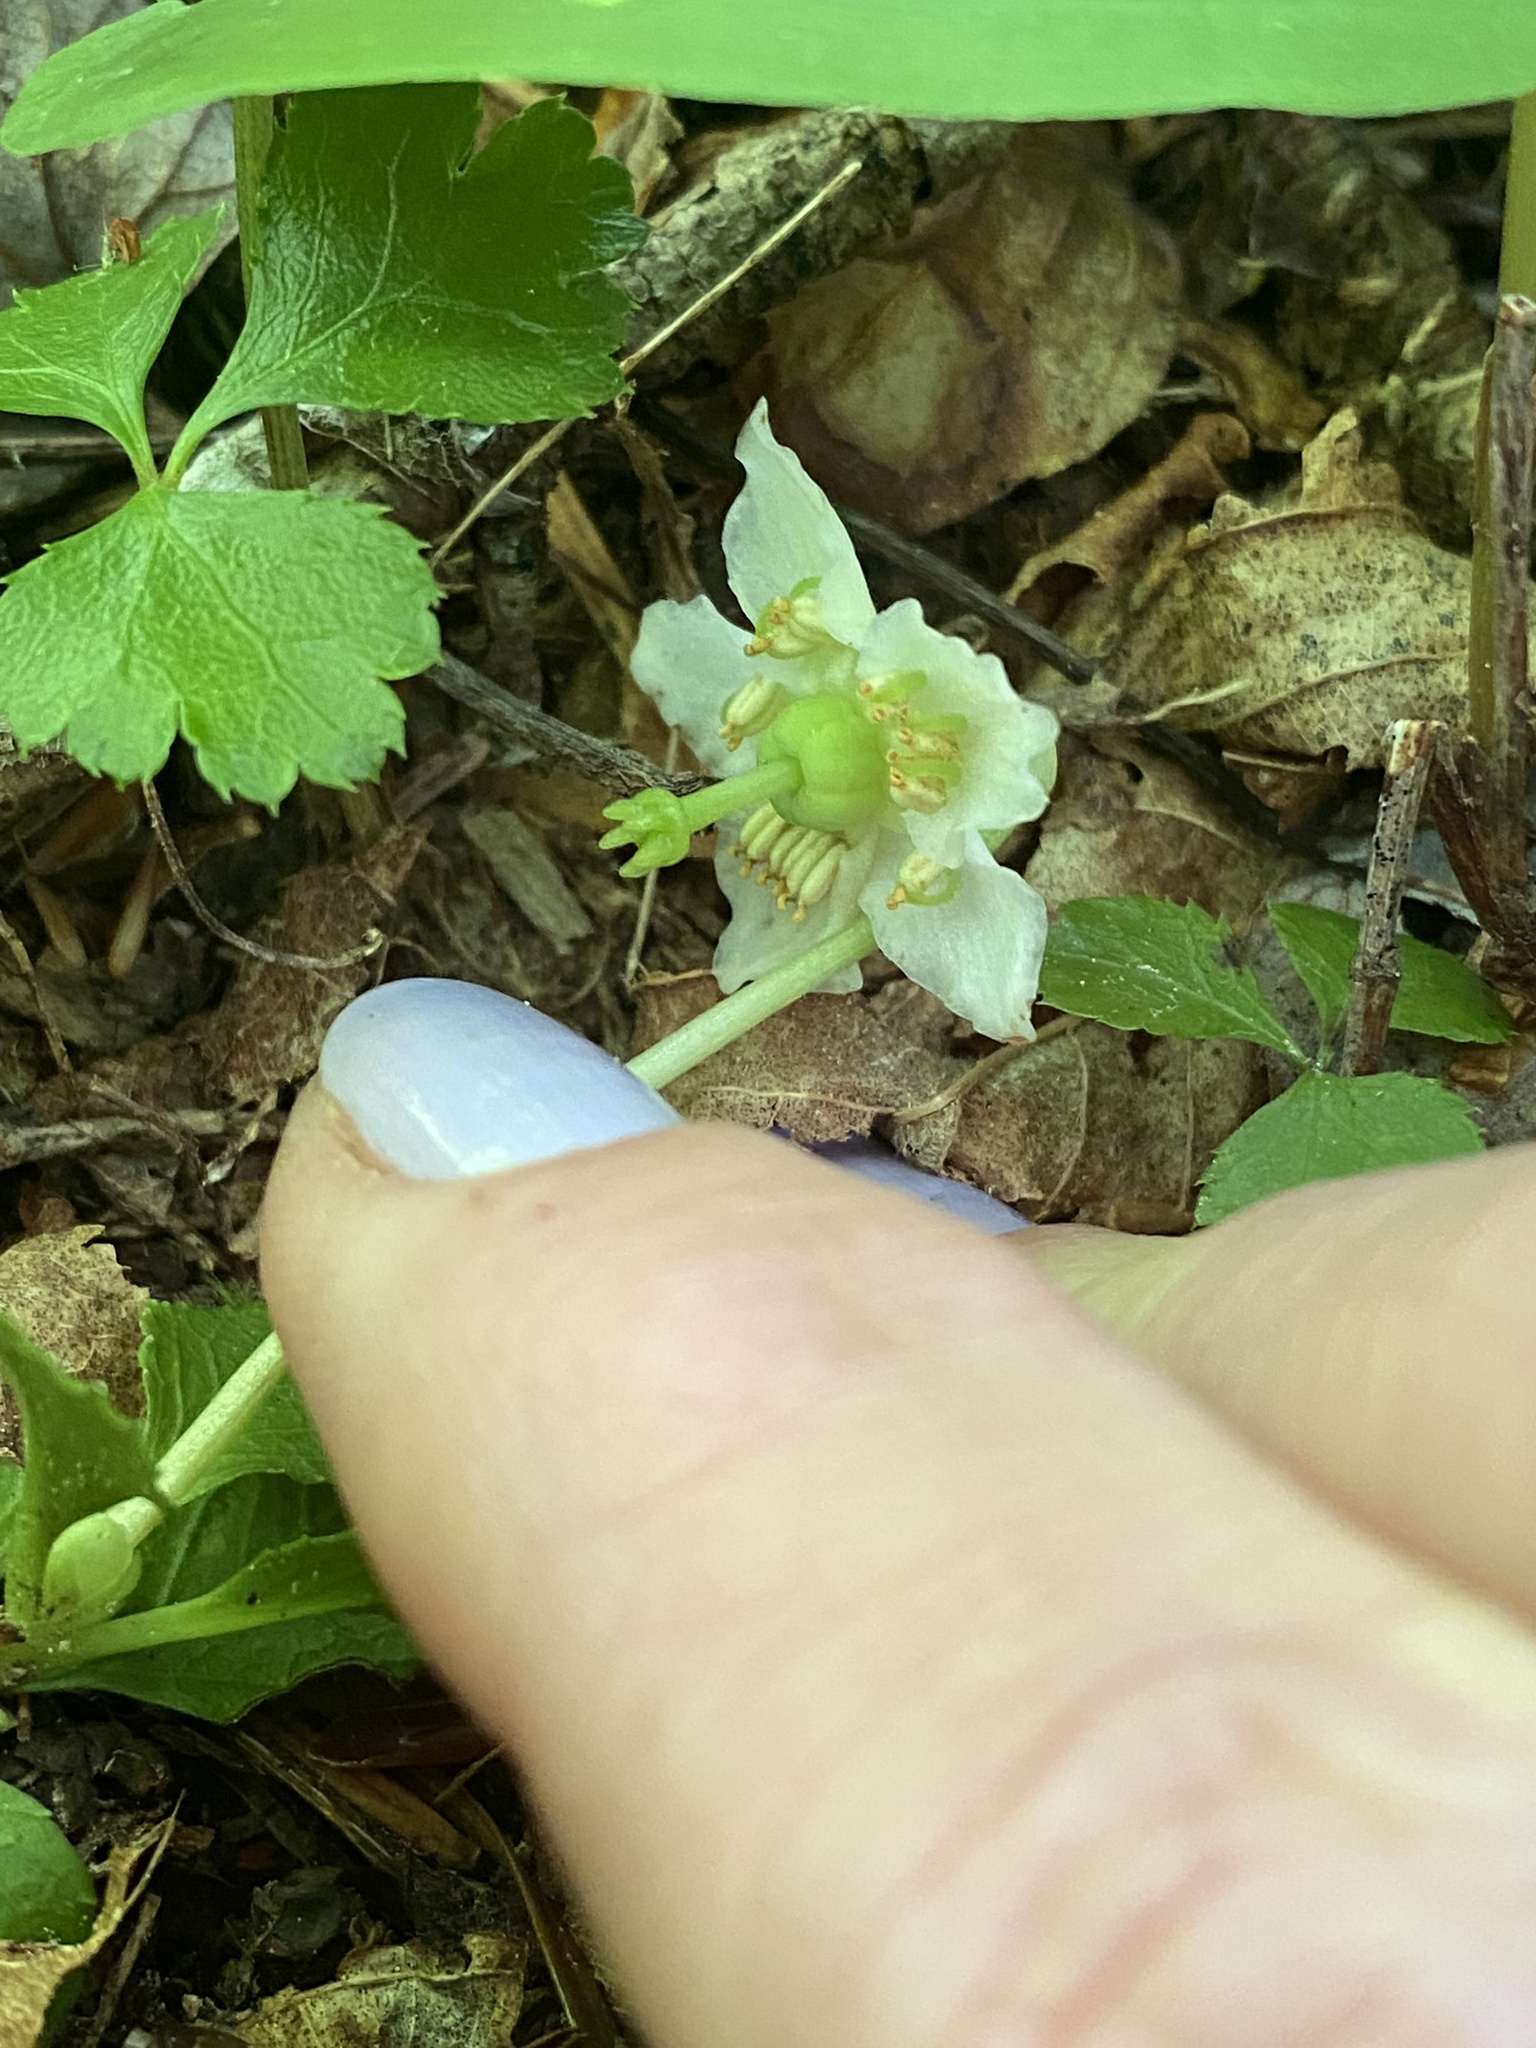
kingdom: Plantae
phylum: Tracheophyta
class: Magnoliopsida
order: Ericales
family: Ericaceae
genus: Moneses
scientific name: Moneses uniflora
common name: One-flowered wintergreen
